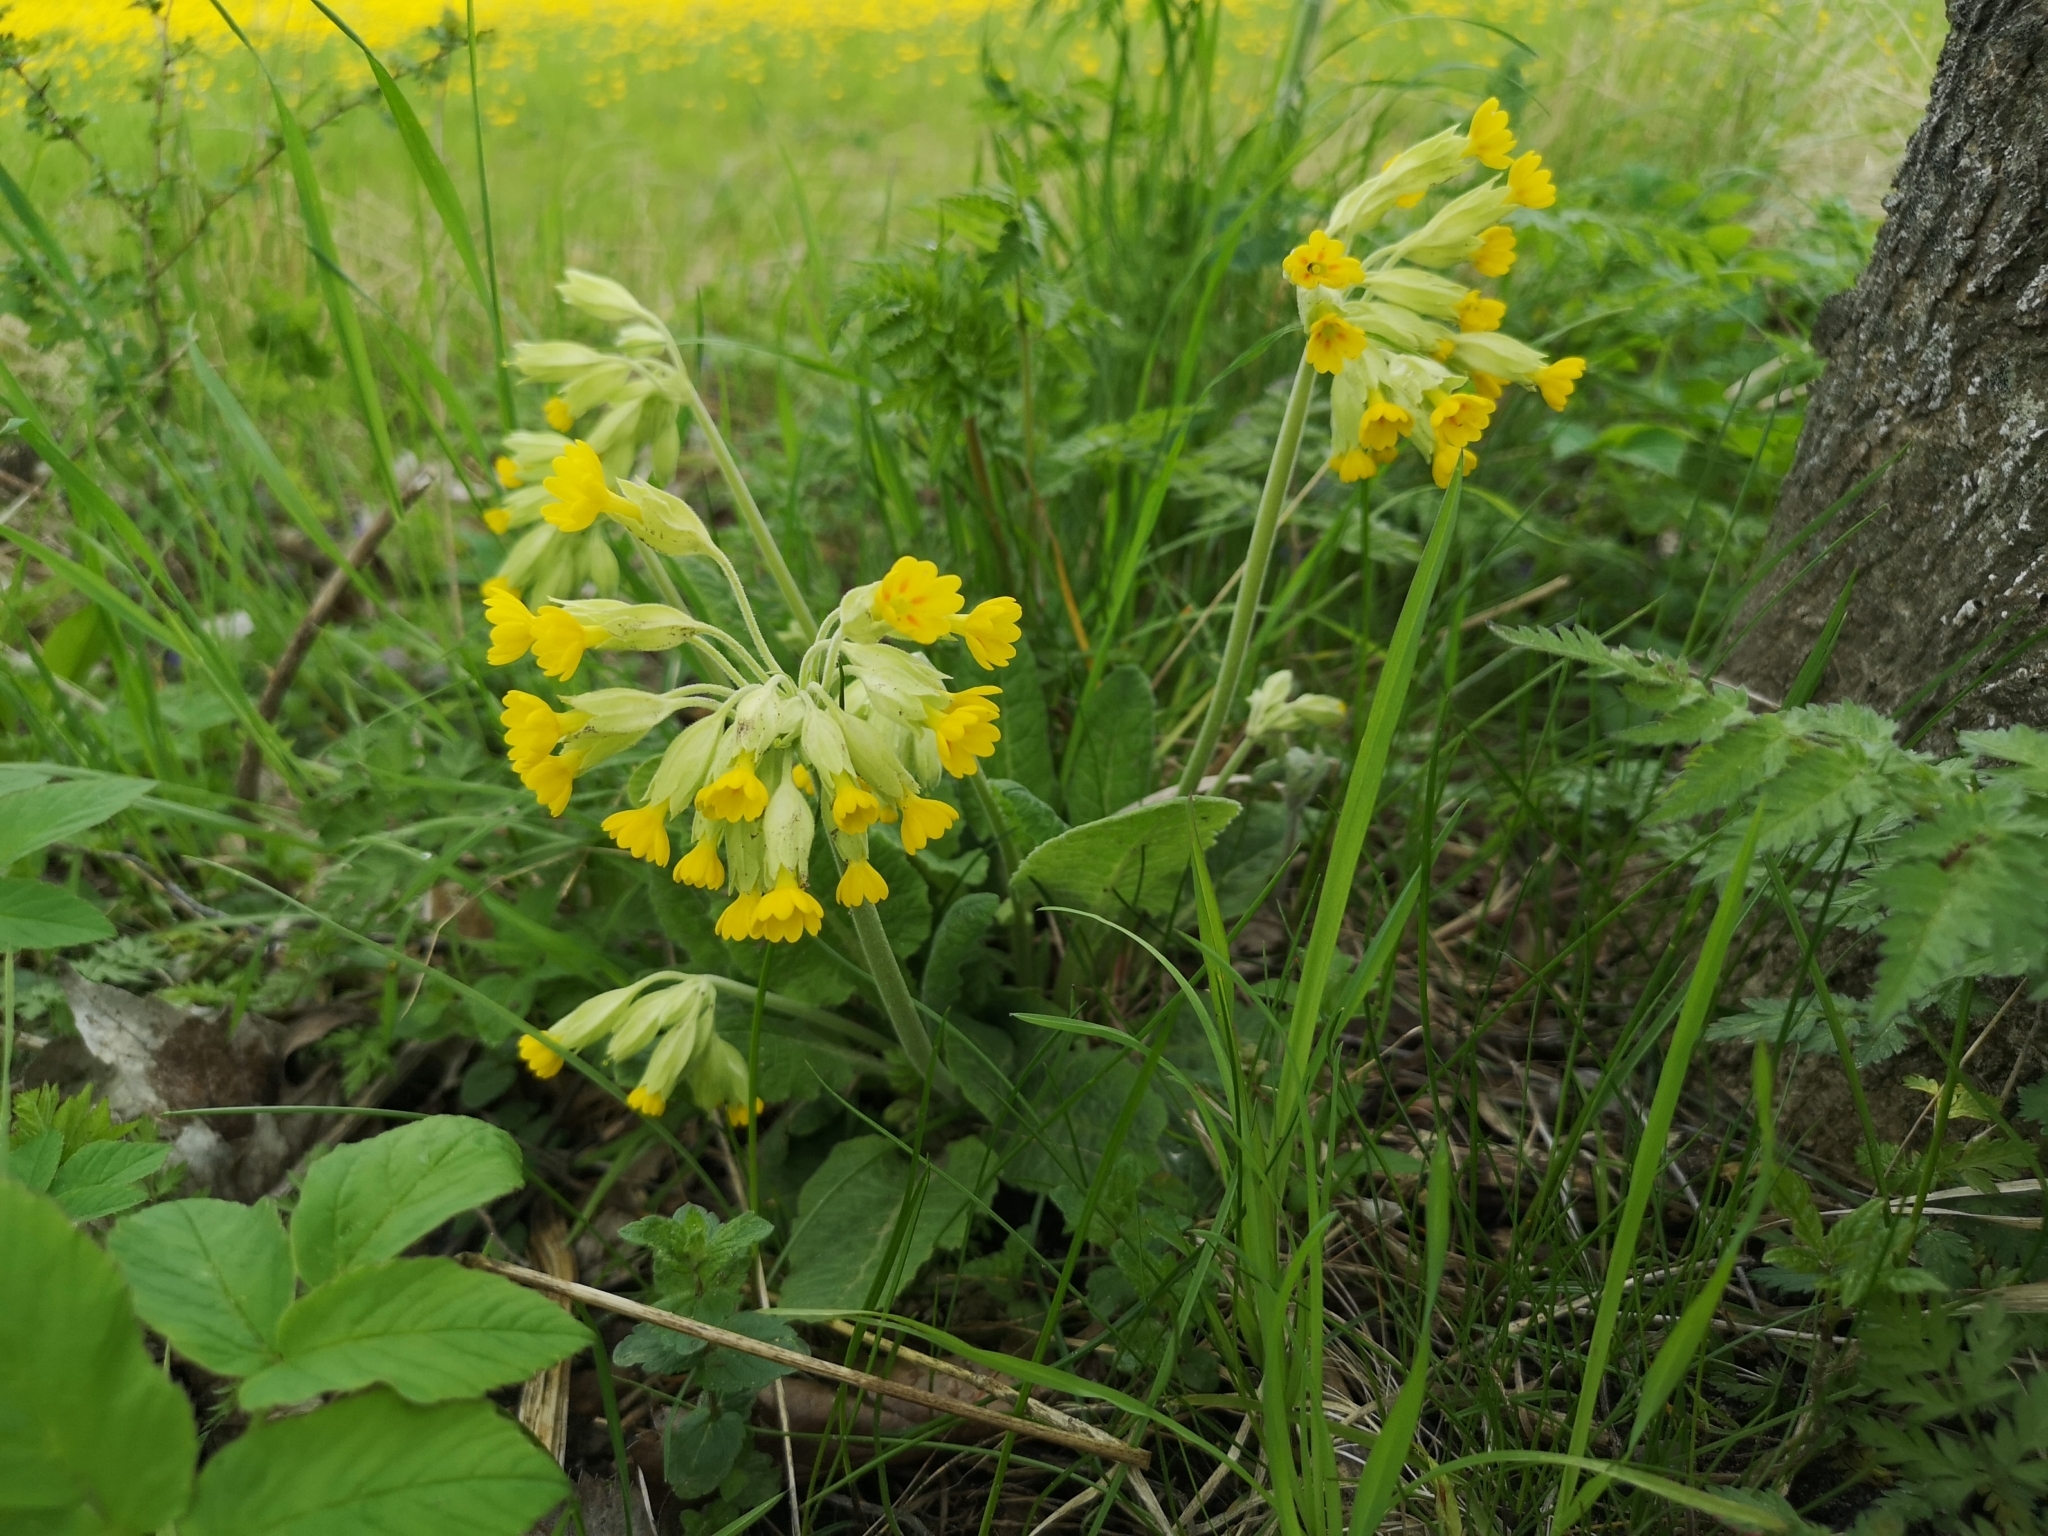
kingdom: Plantae
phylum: Tracheophyta
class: Magnoliopsida
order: Ericales
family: Primulaceae
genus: Primula
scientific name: Primula veris
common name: Cowslip
